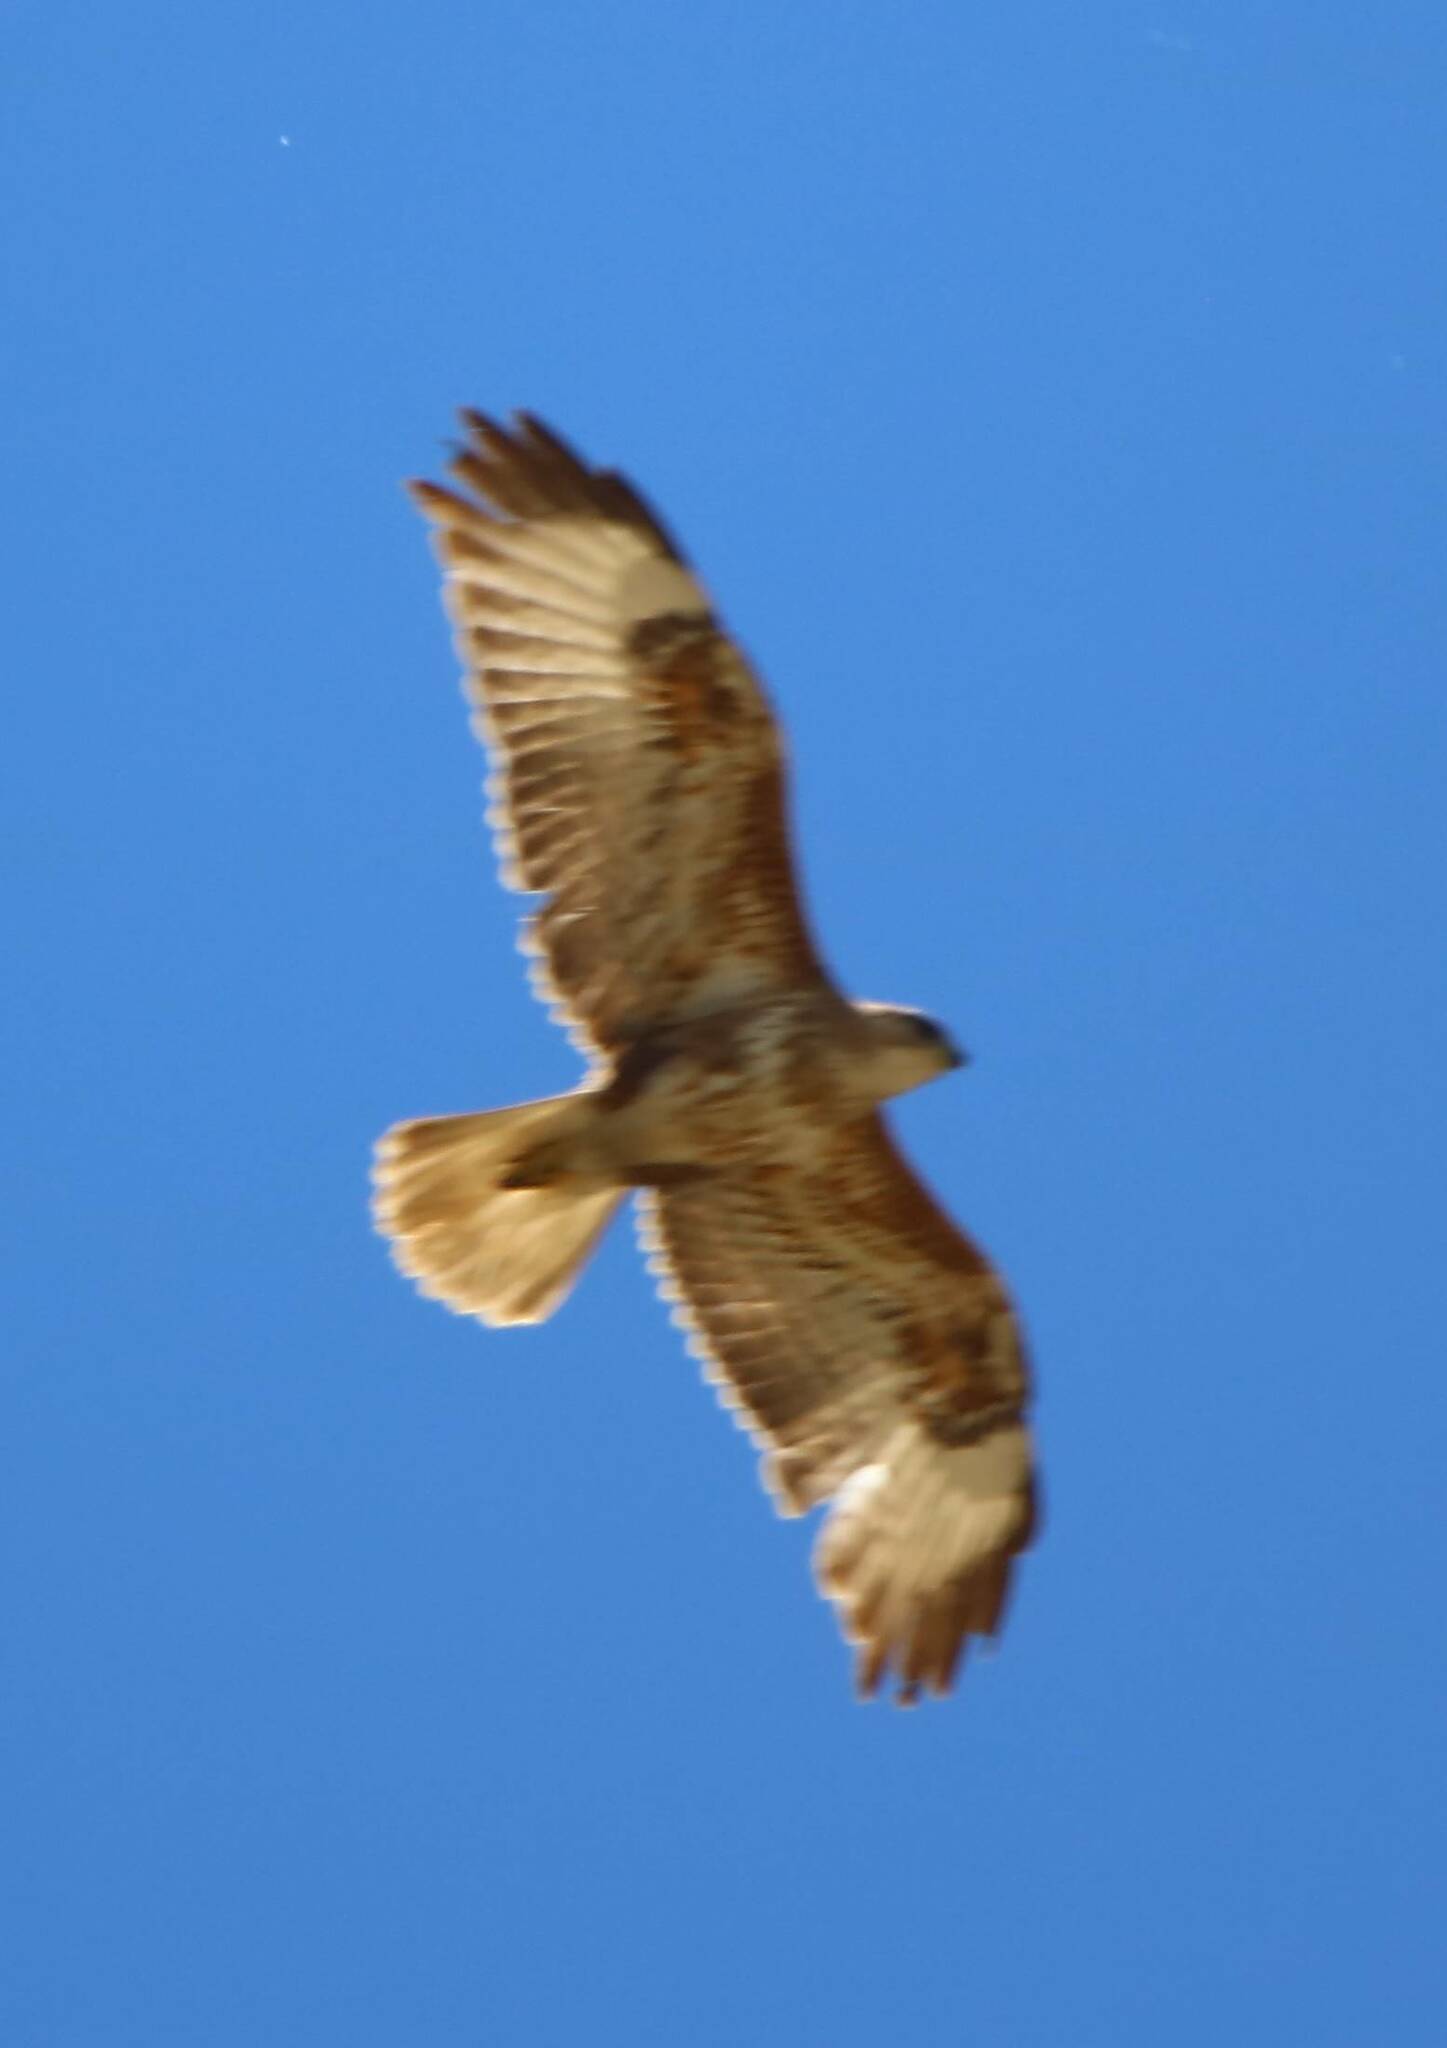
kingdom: Animalia
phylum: Chordata
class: Aves
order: Accipitriformes
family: Accipitridae
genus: Buteo
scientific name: Buteo buteo
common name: Common buzzard
